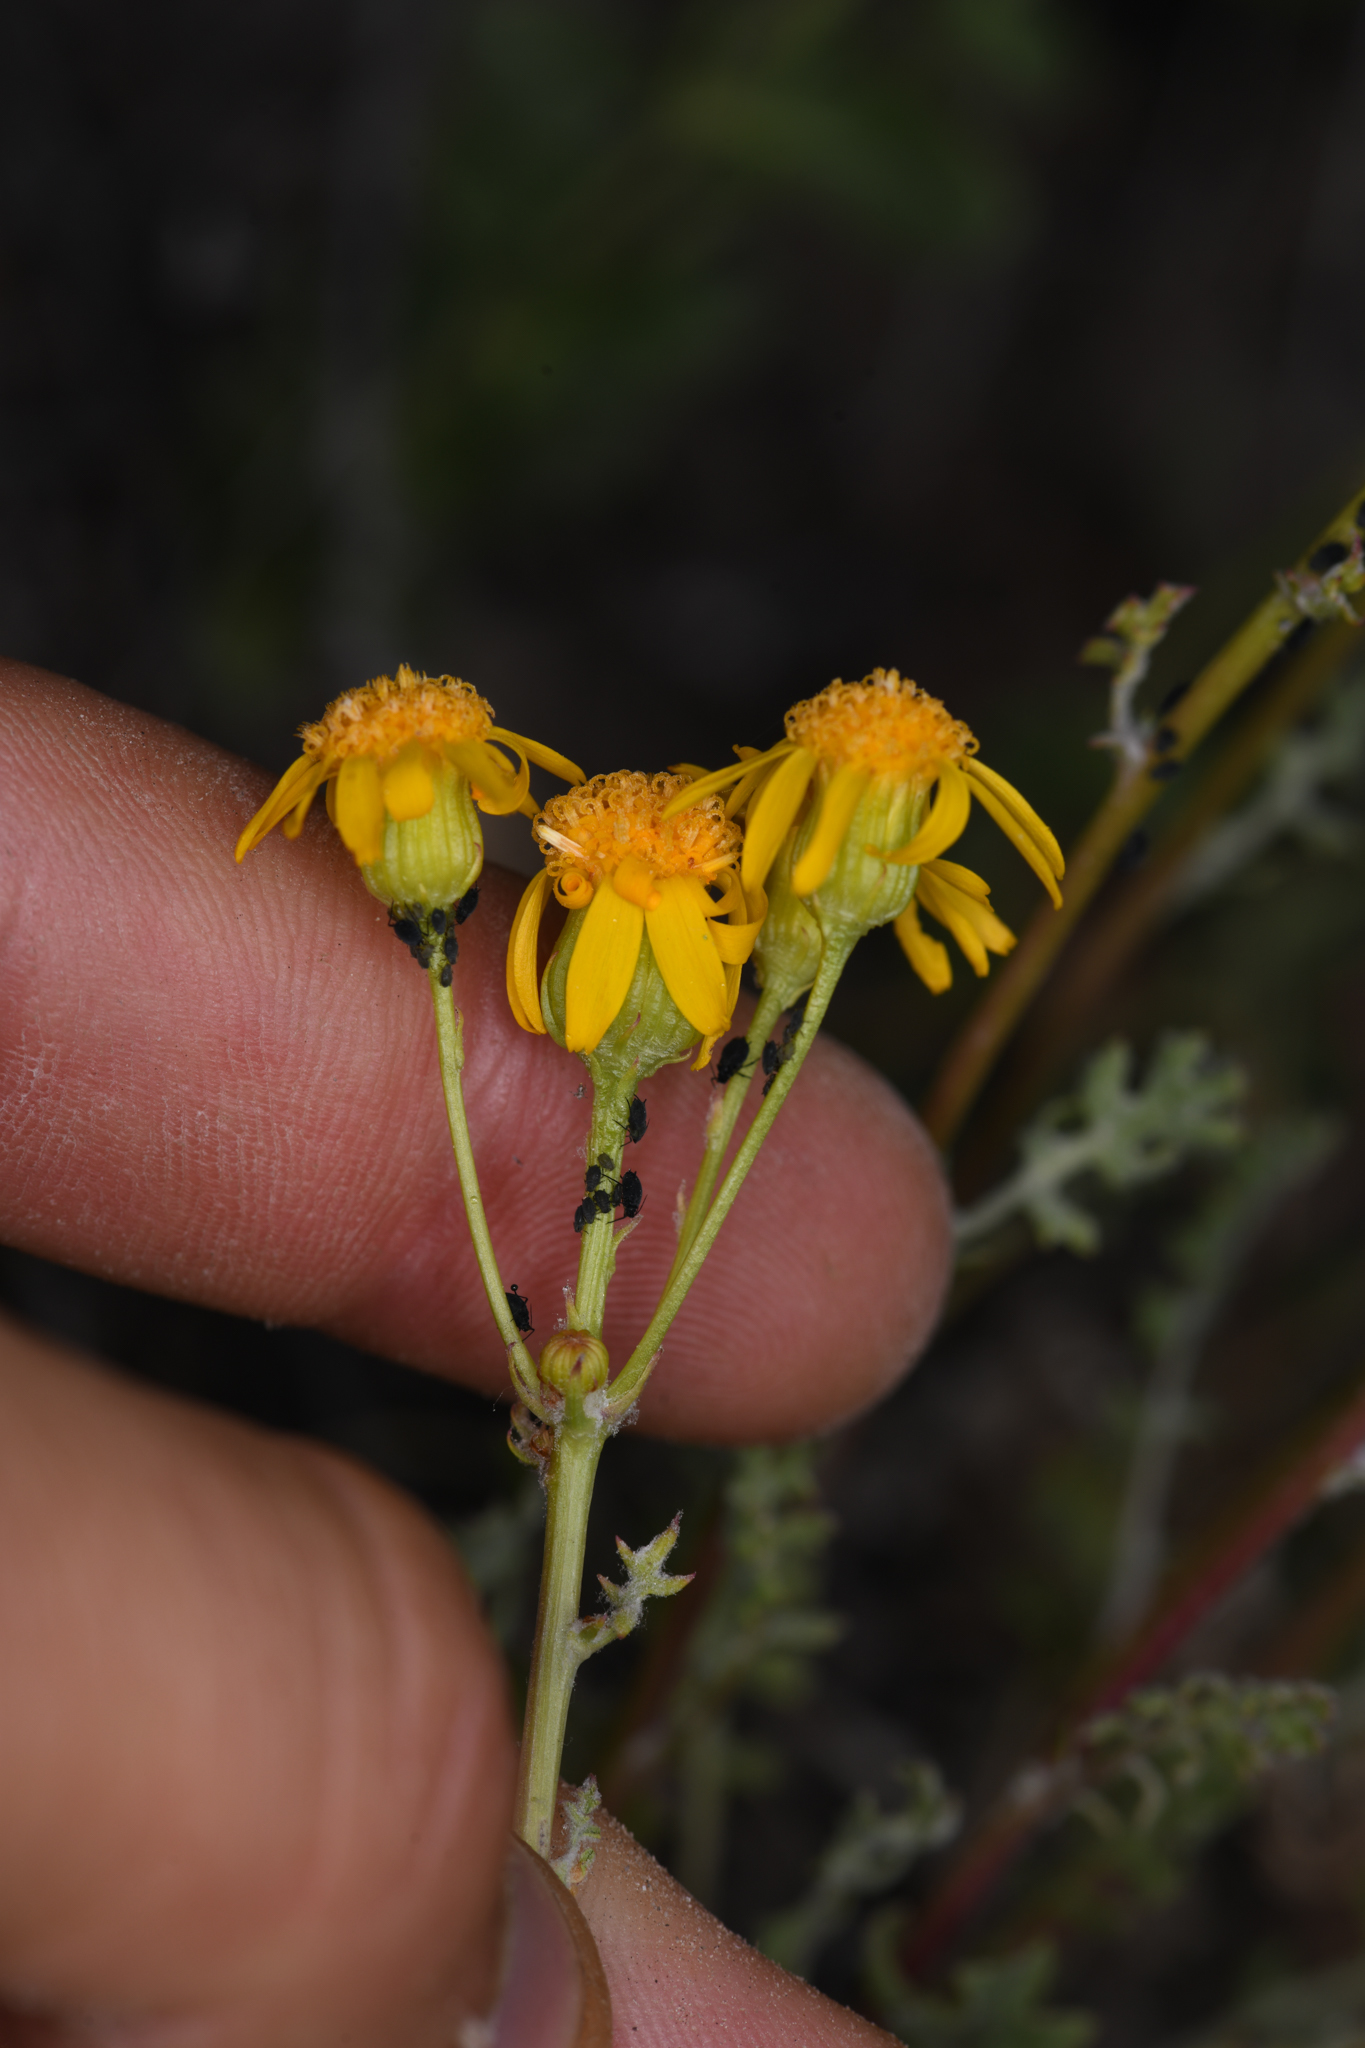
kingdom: Plantae
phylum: Tracheophyta
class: Magnoliopsida
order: Asterales
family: Asteraceae
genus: Packera
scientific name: Packera multilobata
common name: Lobe-leaf groundsel
